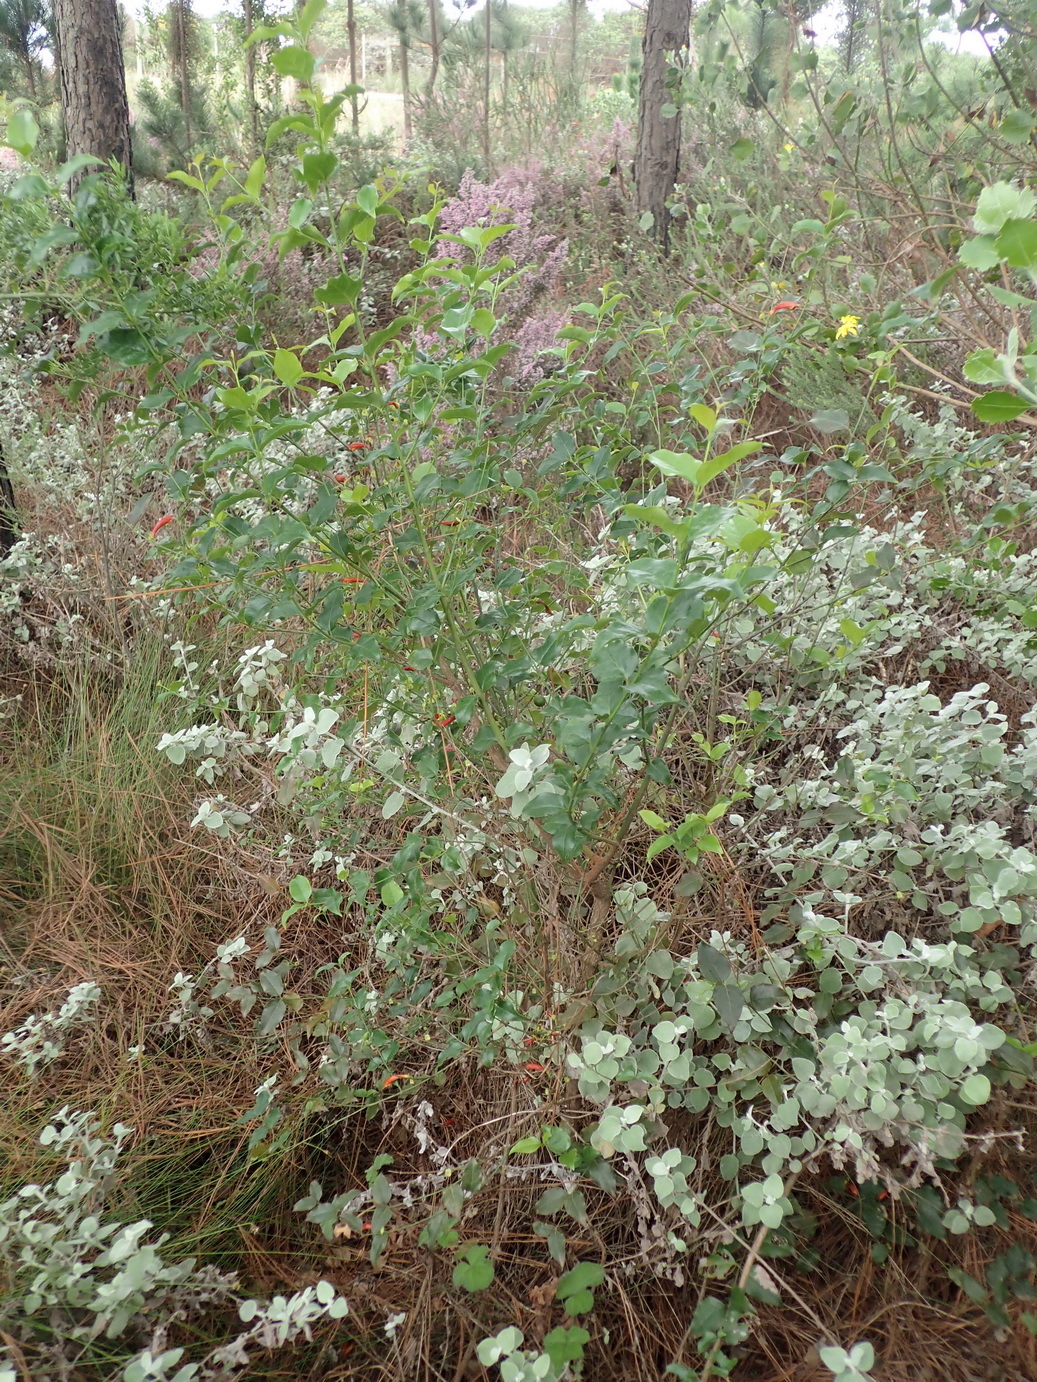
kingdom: Plantae
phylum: Tracheophyta
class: Magnoliopsida
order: Lamiales
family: Stilbaceae
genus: Halleria
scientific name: Halleria lucida
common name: Tree fuschia
